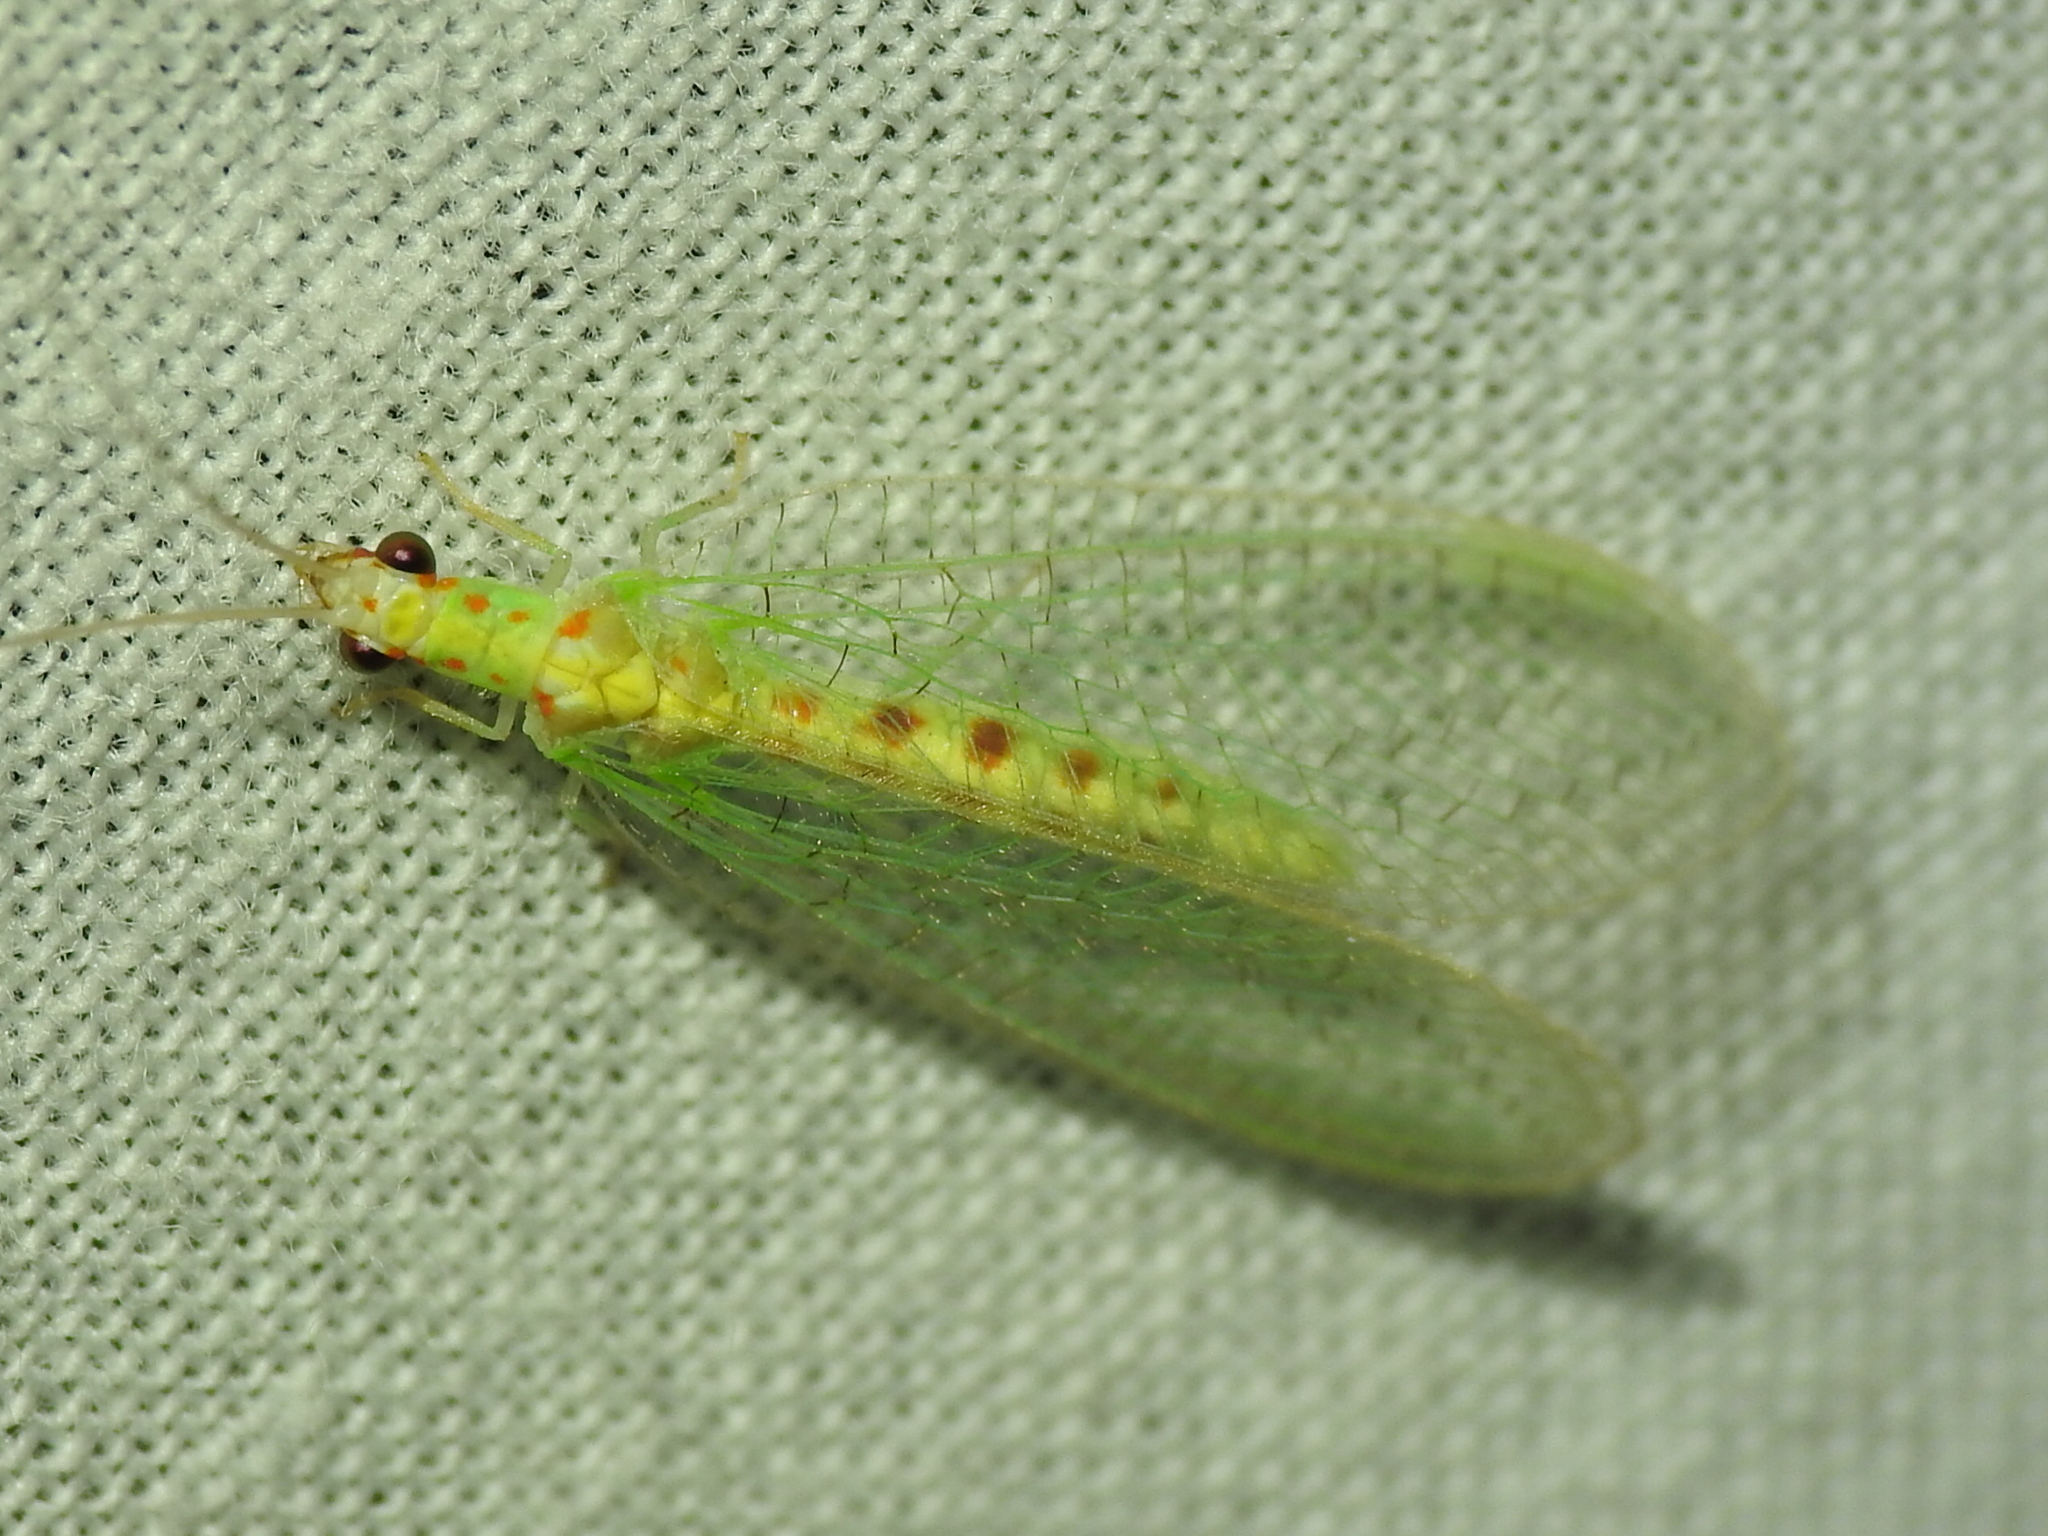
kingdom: Animalia
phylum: Arthropoda
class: Insecta
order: Neuroptera
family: Chrysopidae
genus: Chrysopa
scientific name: Chrysopa quadripunctata
